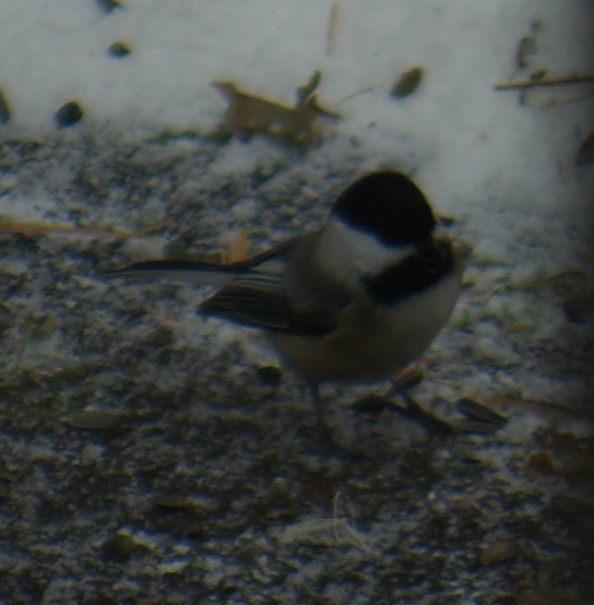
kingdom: Animalia
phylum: Chordata
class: Aves
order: Passeriformes
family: Paridae
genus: Poecile
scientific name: Poecile atricapillus
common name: Black-capped chickadee
